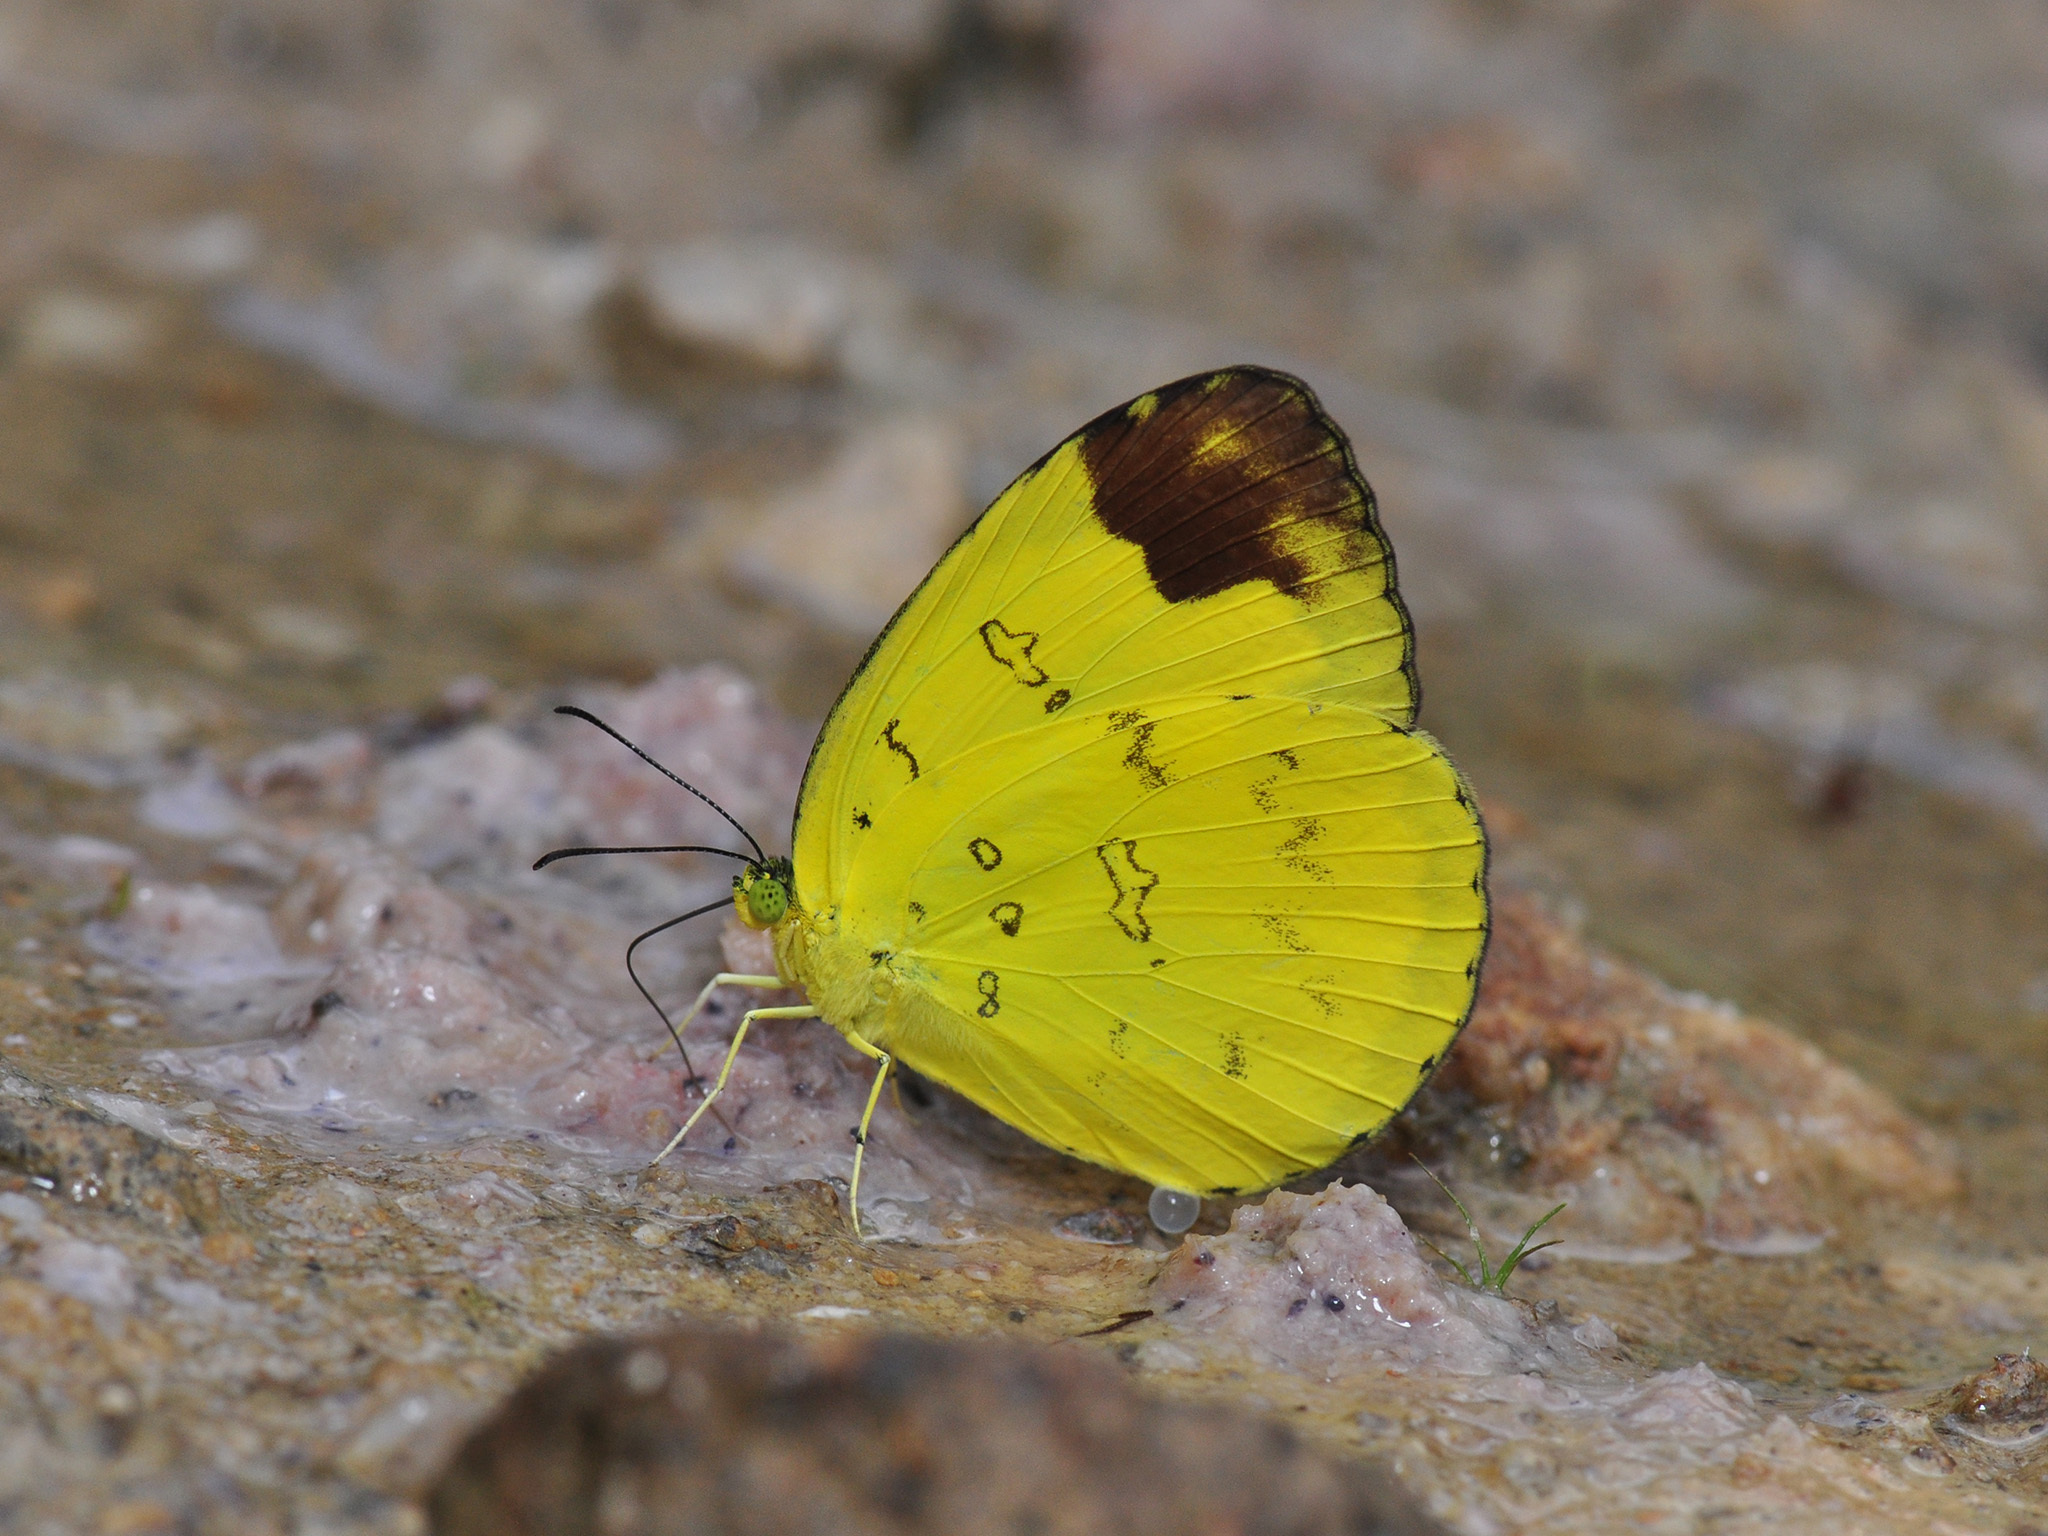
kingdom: Animalia
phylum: Arthropoda
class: Insecta
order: Lepidoptera
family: Pieridae
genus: Eurema
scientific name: Eurema simulatrix
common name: Hill grass yellow
